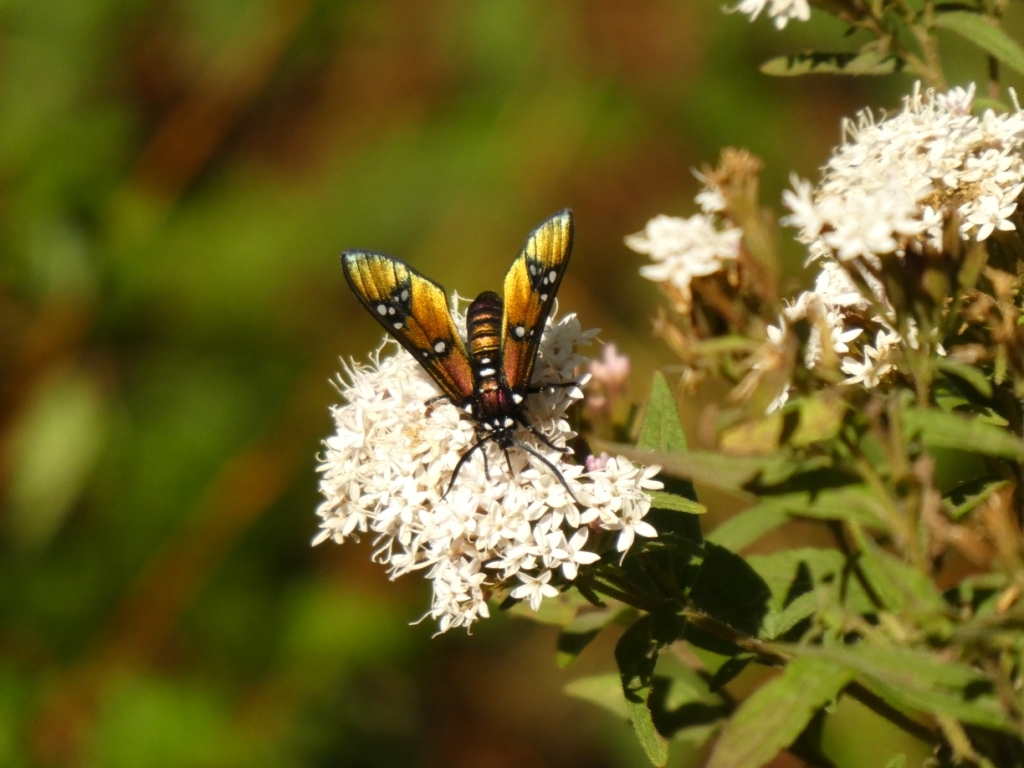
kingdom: Animalia
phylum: Arthropoda
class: Insecta
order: Lepidoptera
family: Erebidae
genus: Chrysocale
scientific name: Chrysocale principalis
